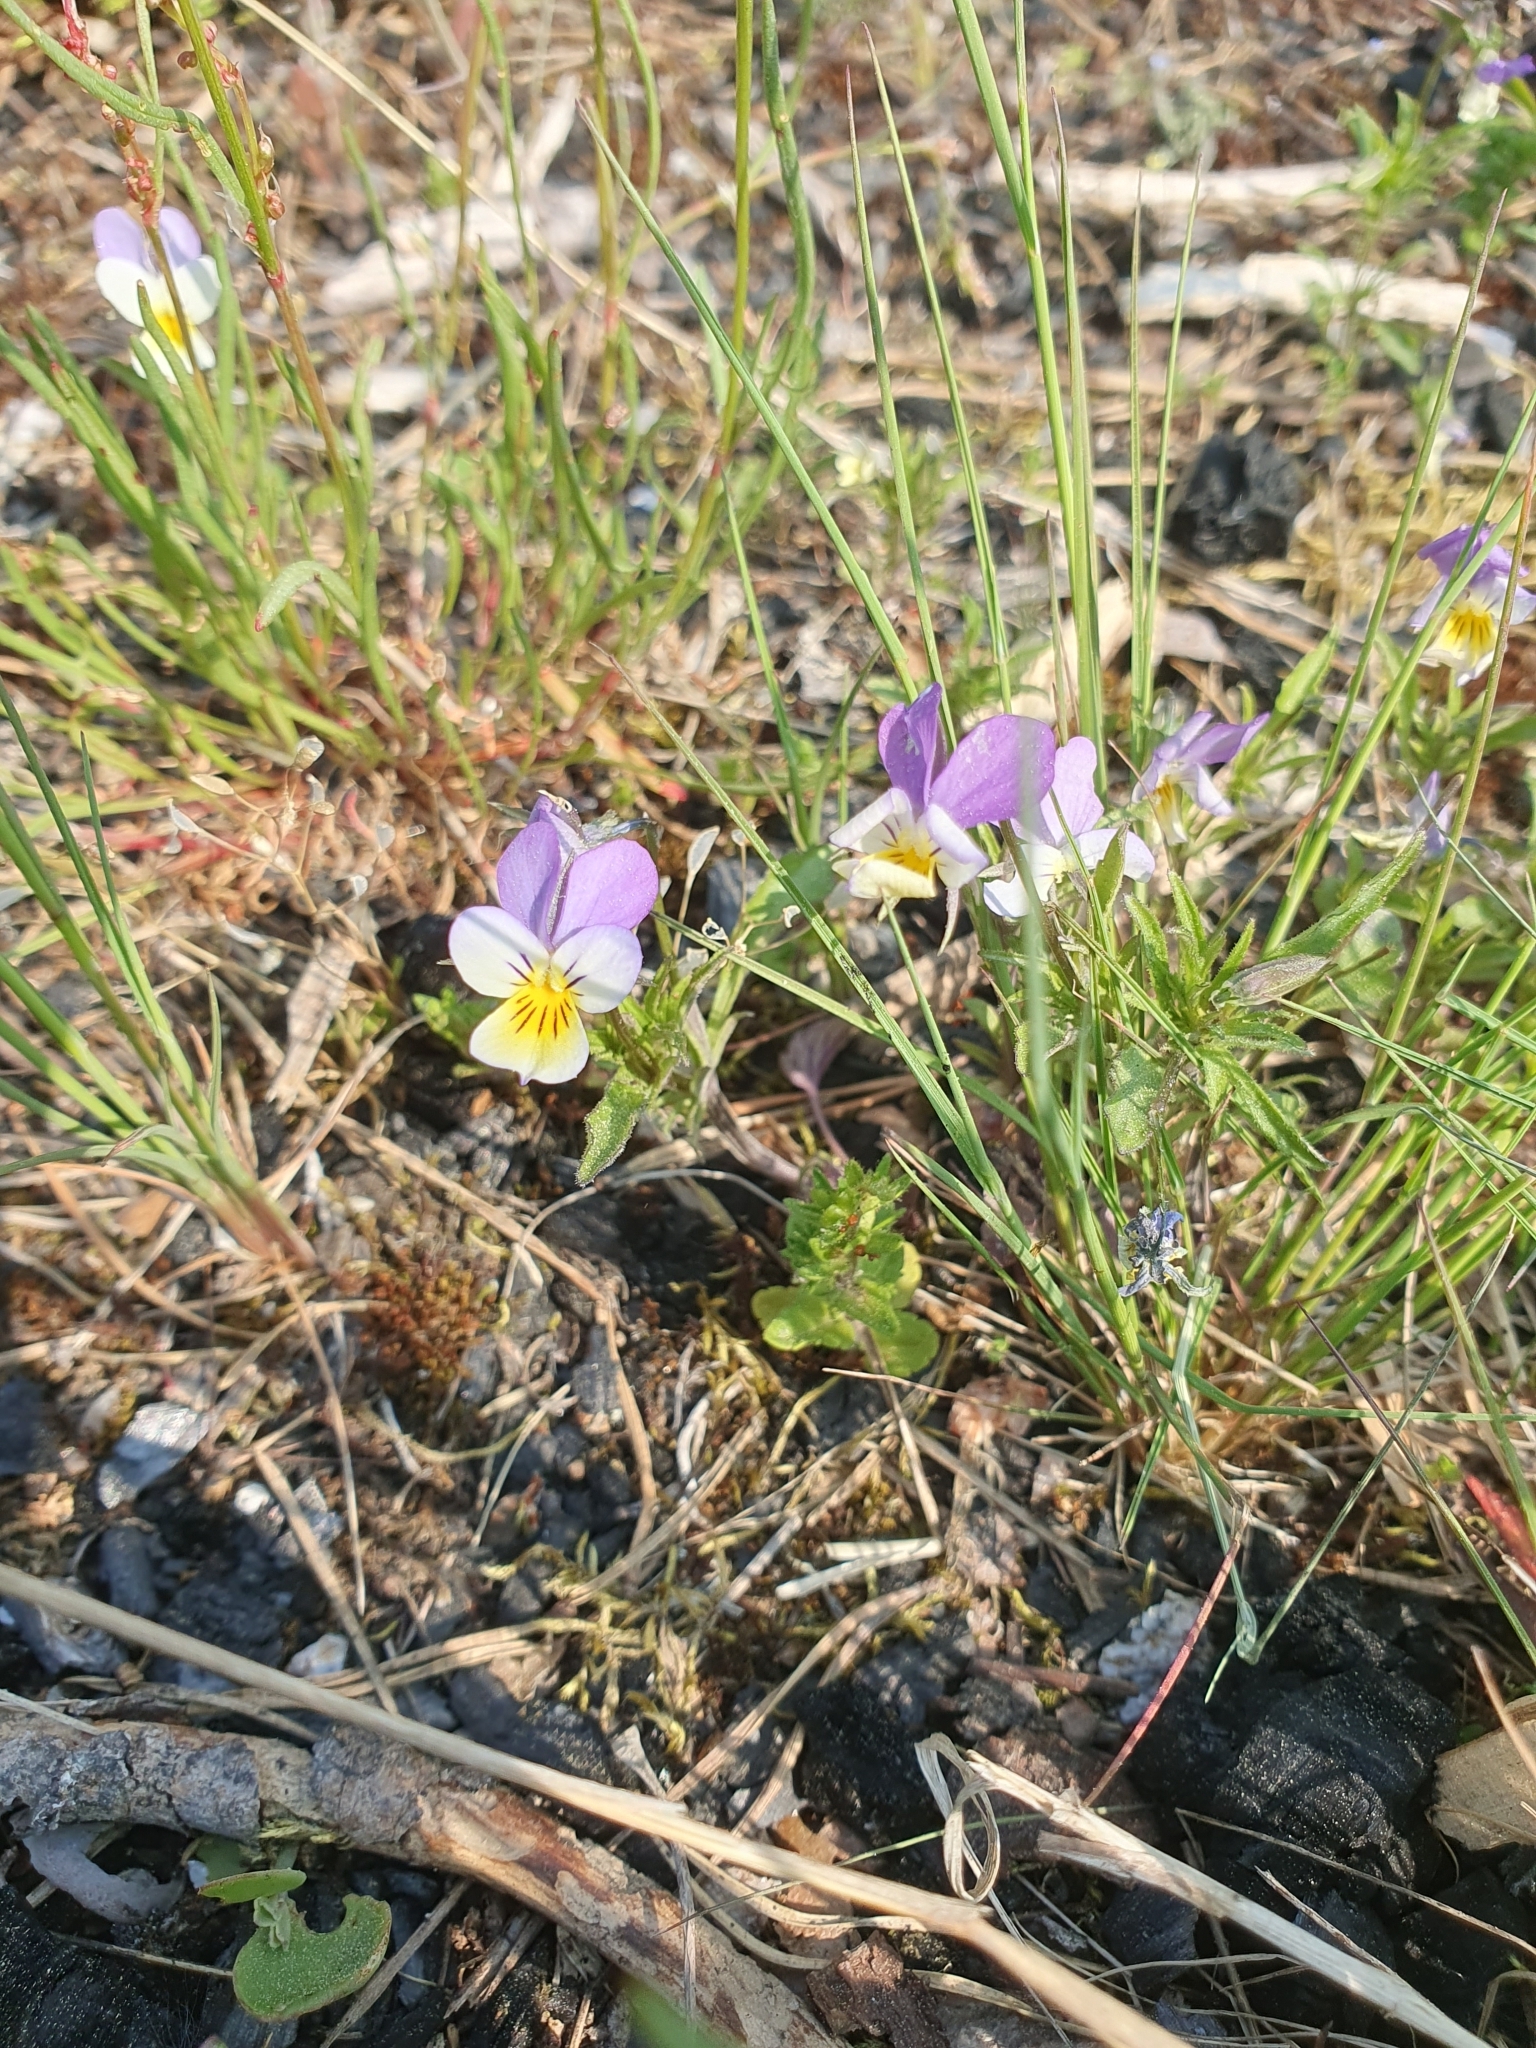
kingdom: Plantae
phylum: Tracheophyta
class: Magnoliopsida
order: Malpighiales
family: Violaceae
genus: Viola
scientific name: Viola tricolor
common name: Pansy
